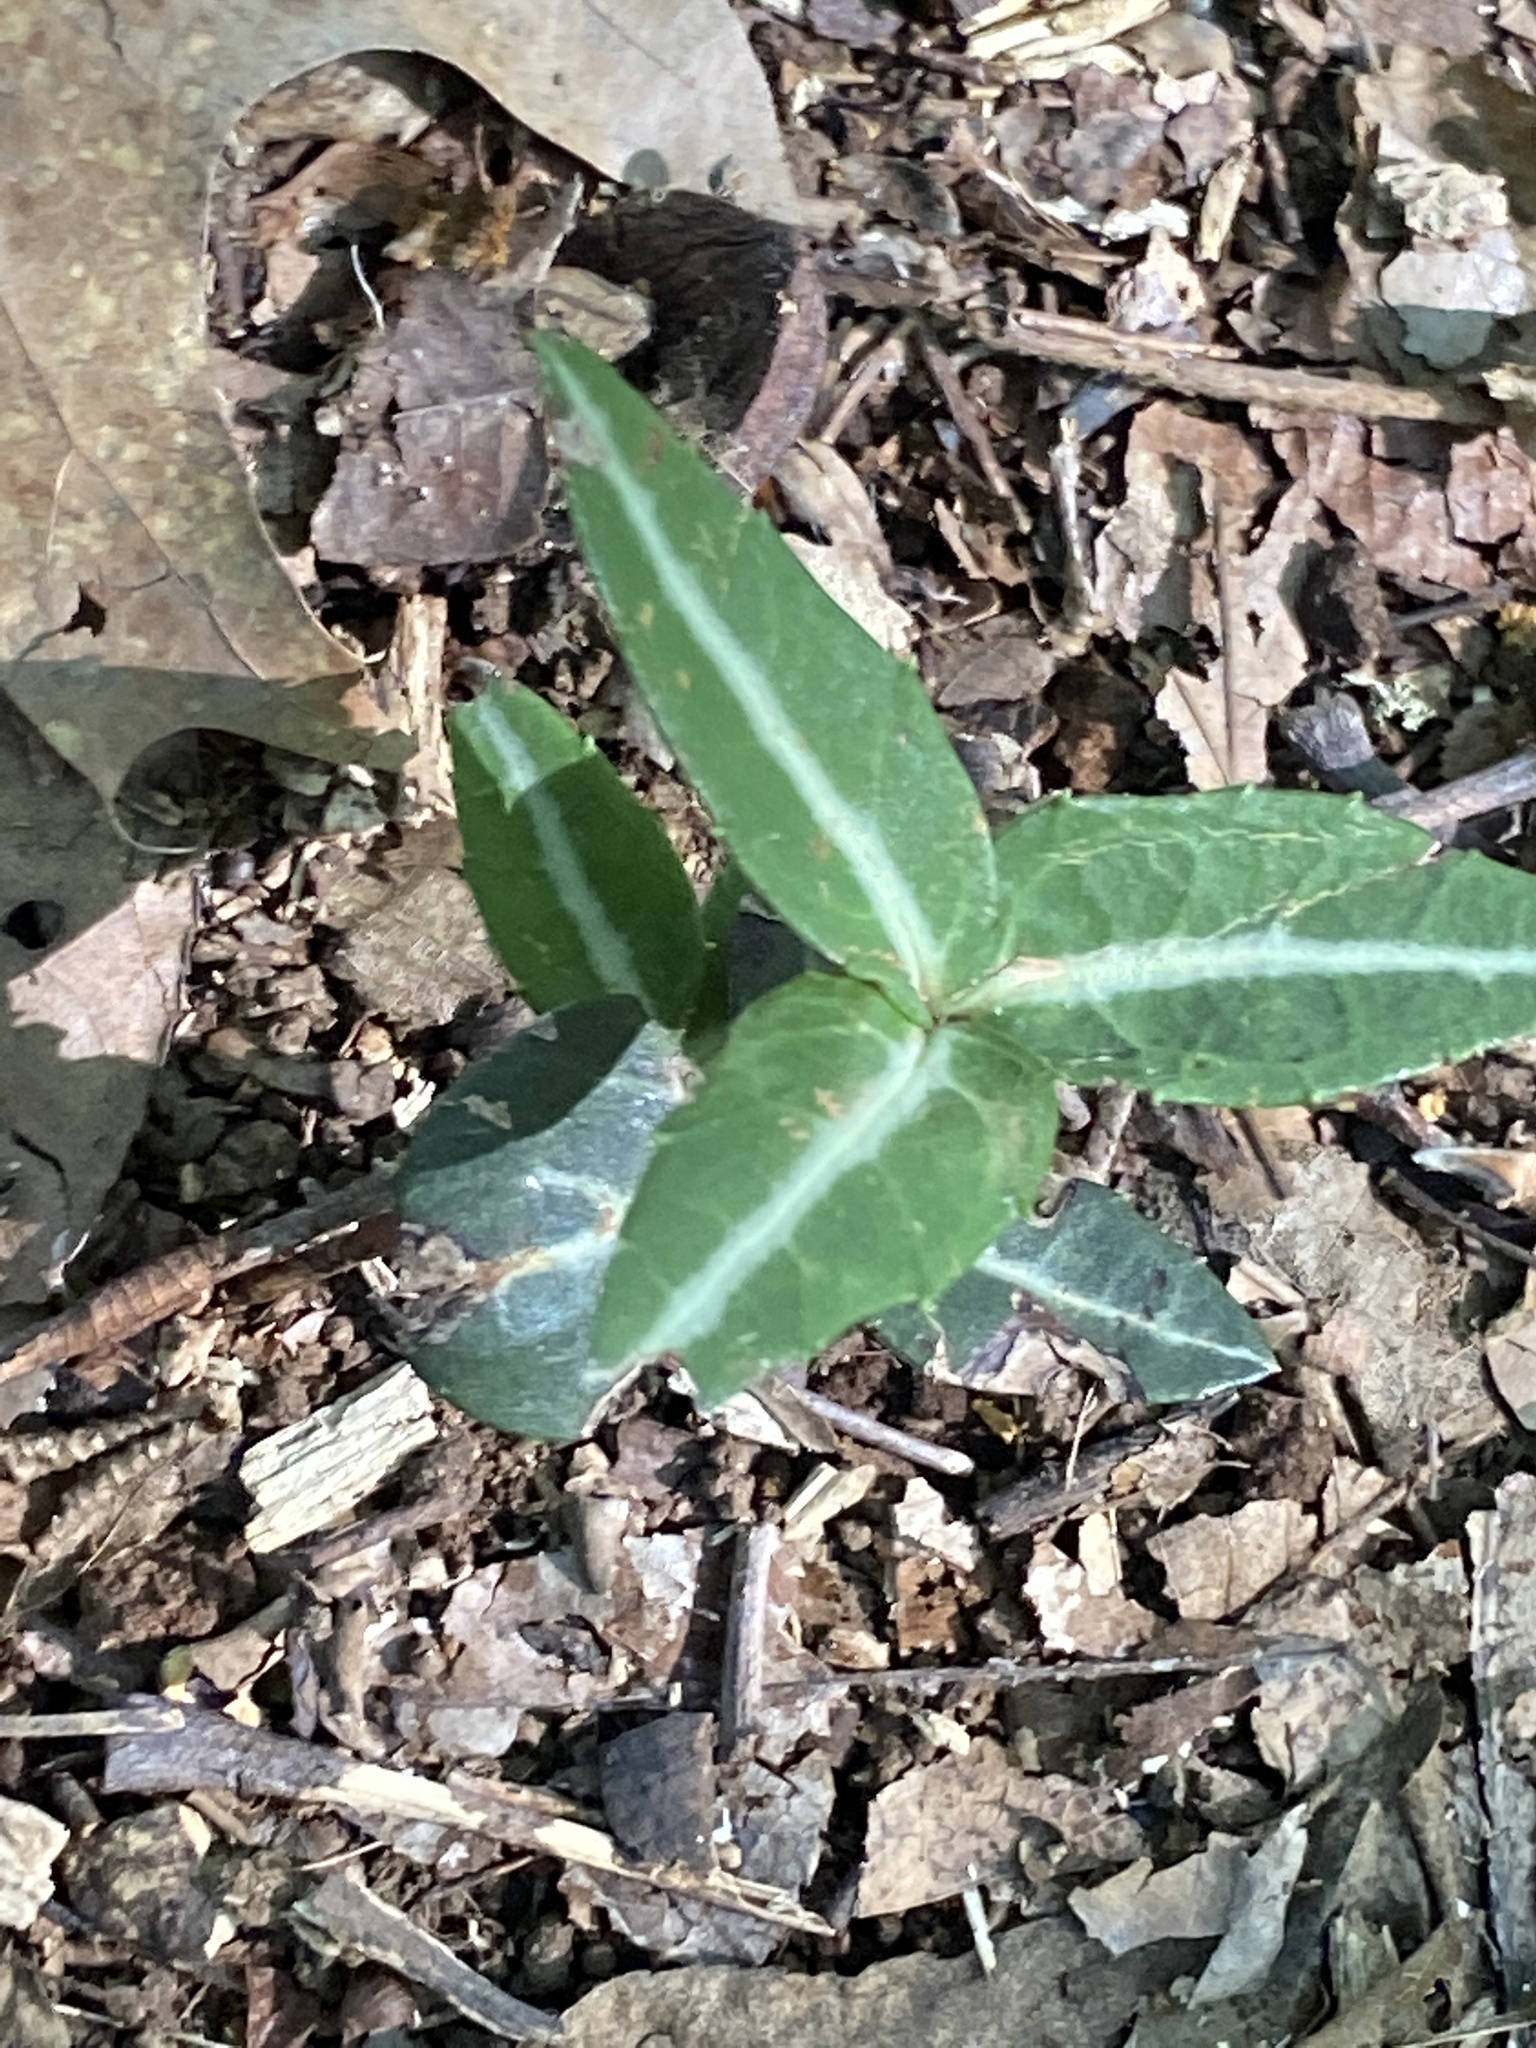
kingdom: Plantae
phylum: Tracheophyta
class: Magnoliopsida
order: Ericales
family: Ericaceae
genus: Chimaphila
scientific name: Chimaphila maculata
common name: Spotted pipsissewa
